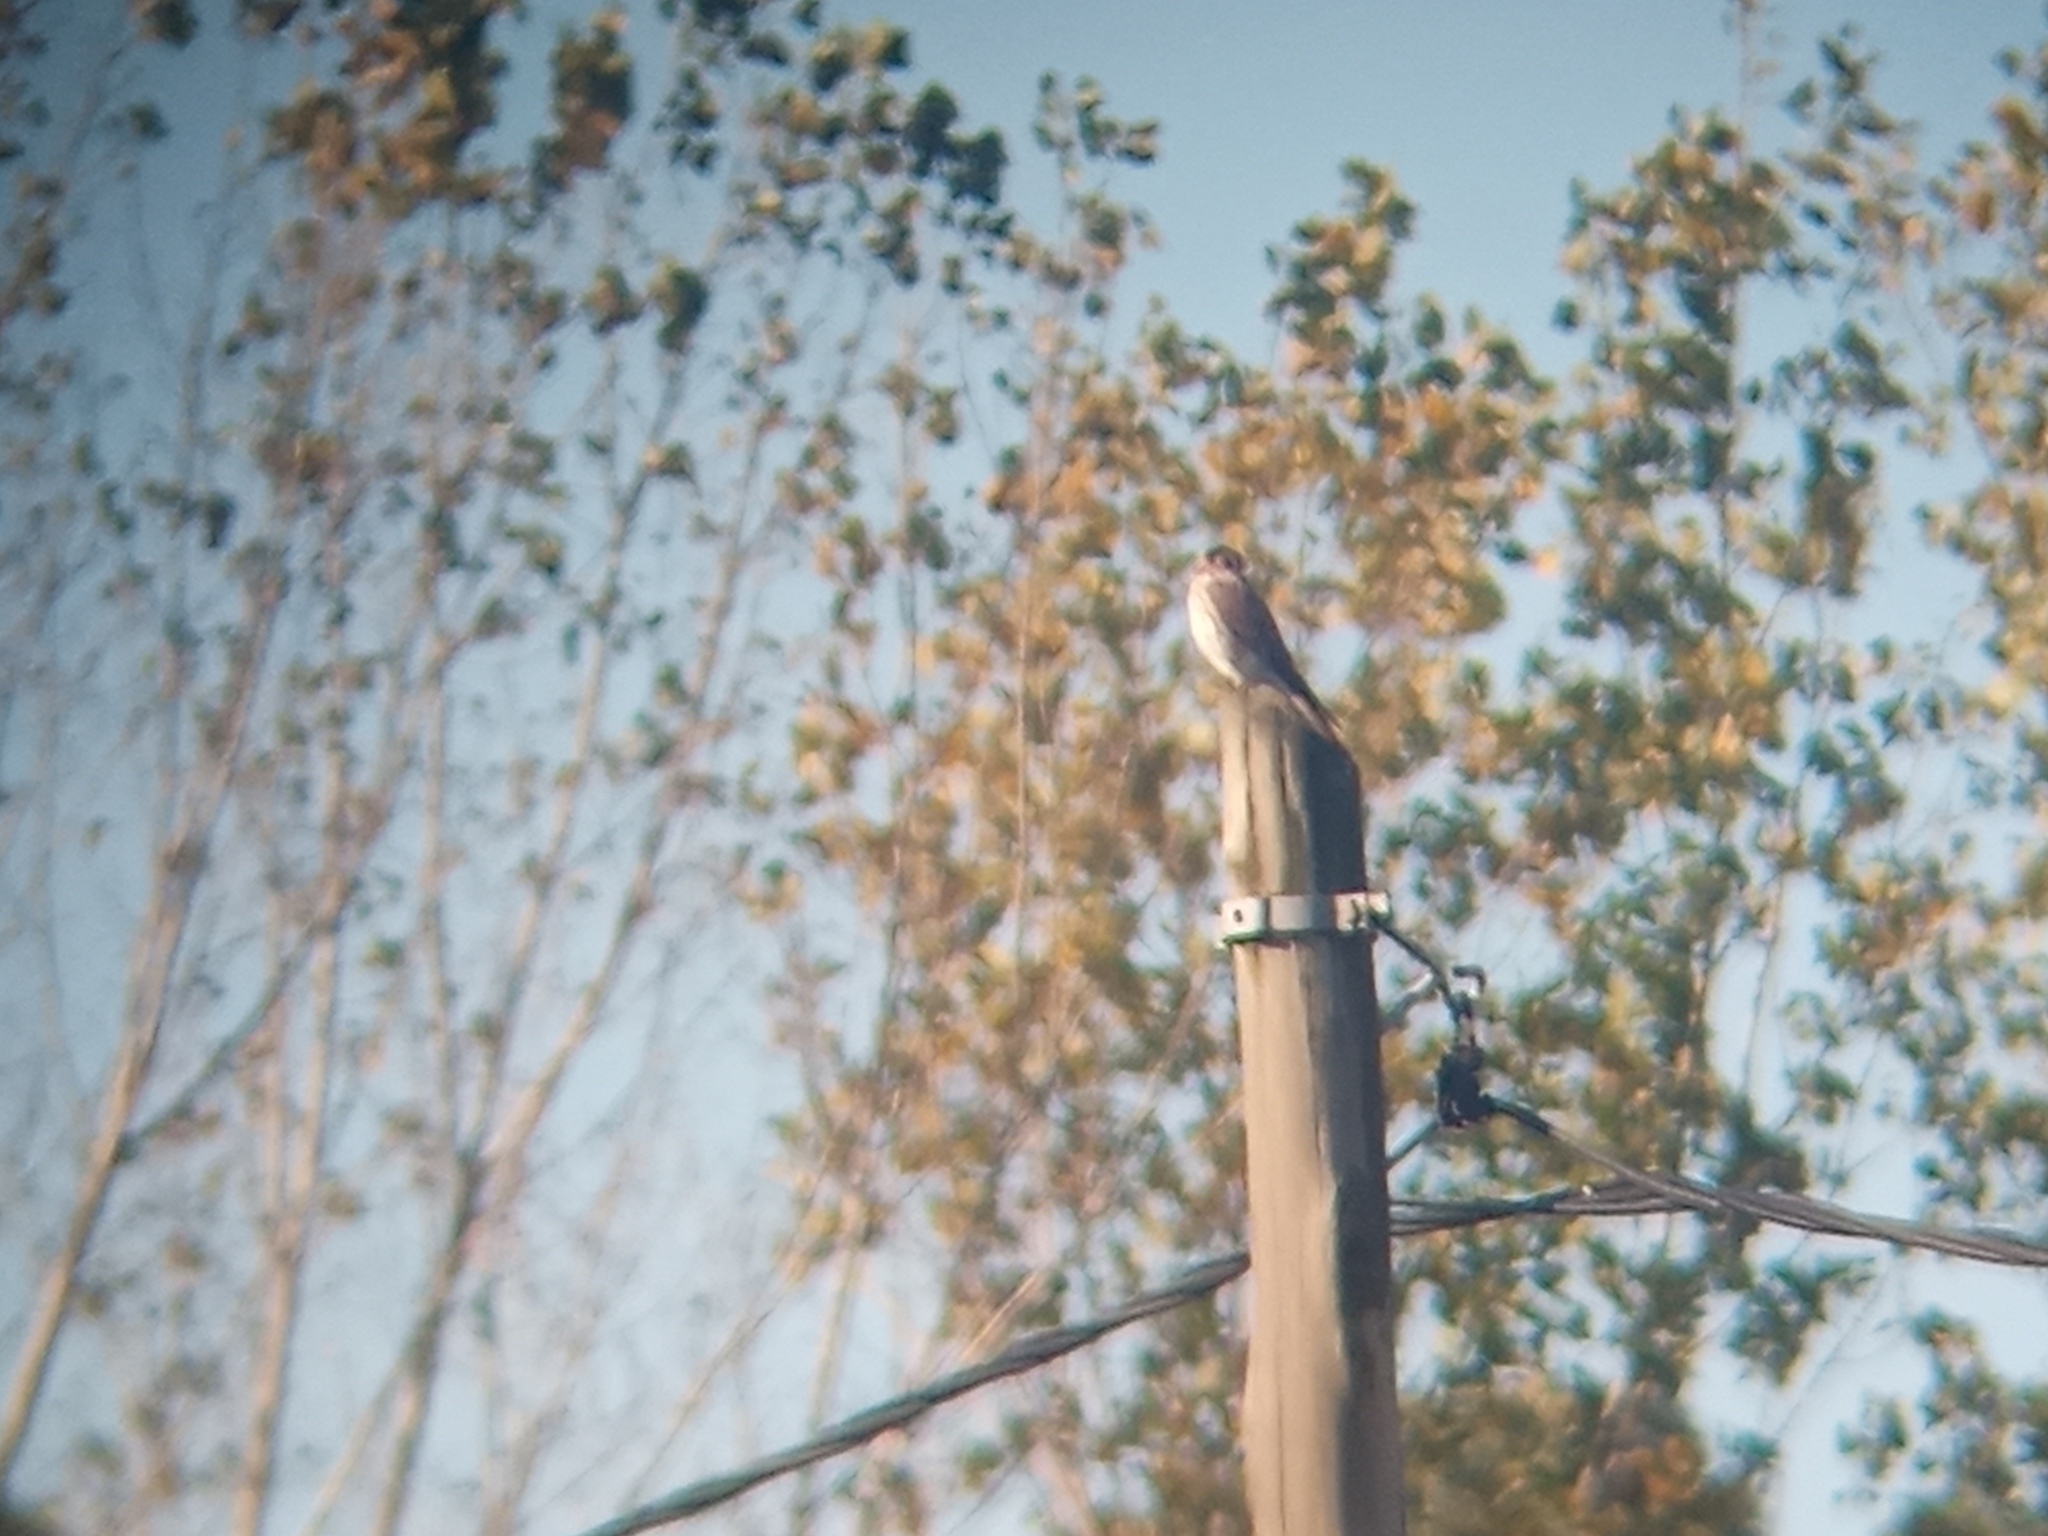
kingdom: Animalia
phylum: Chordata
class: Aves
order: Falconiformes
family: Falconidae
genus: Falco
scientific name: Falco sparverius
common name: American kestrel
